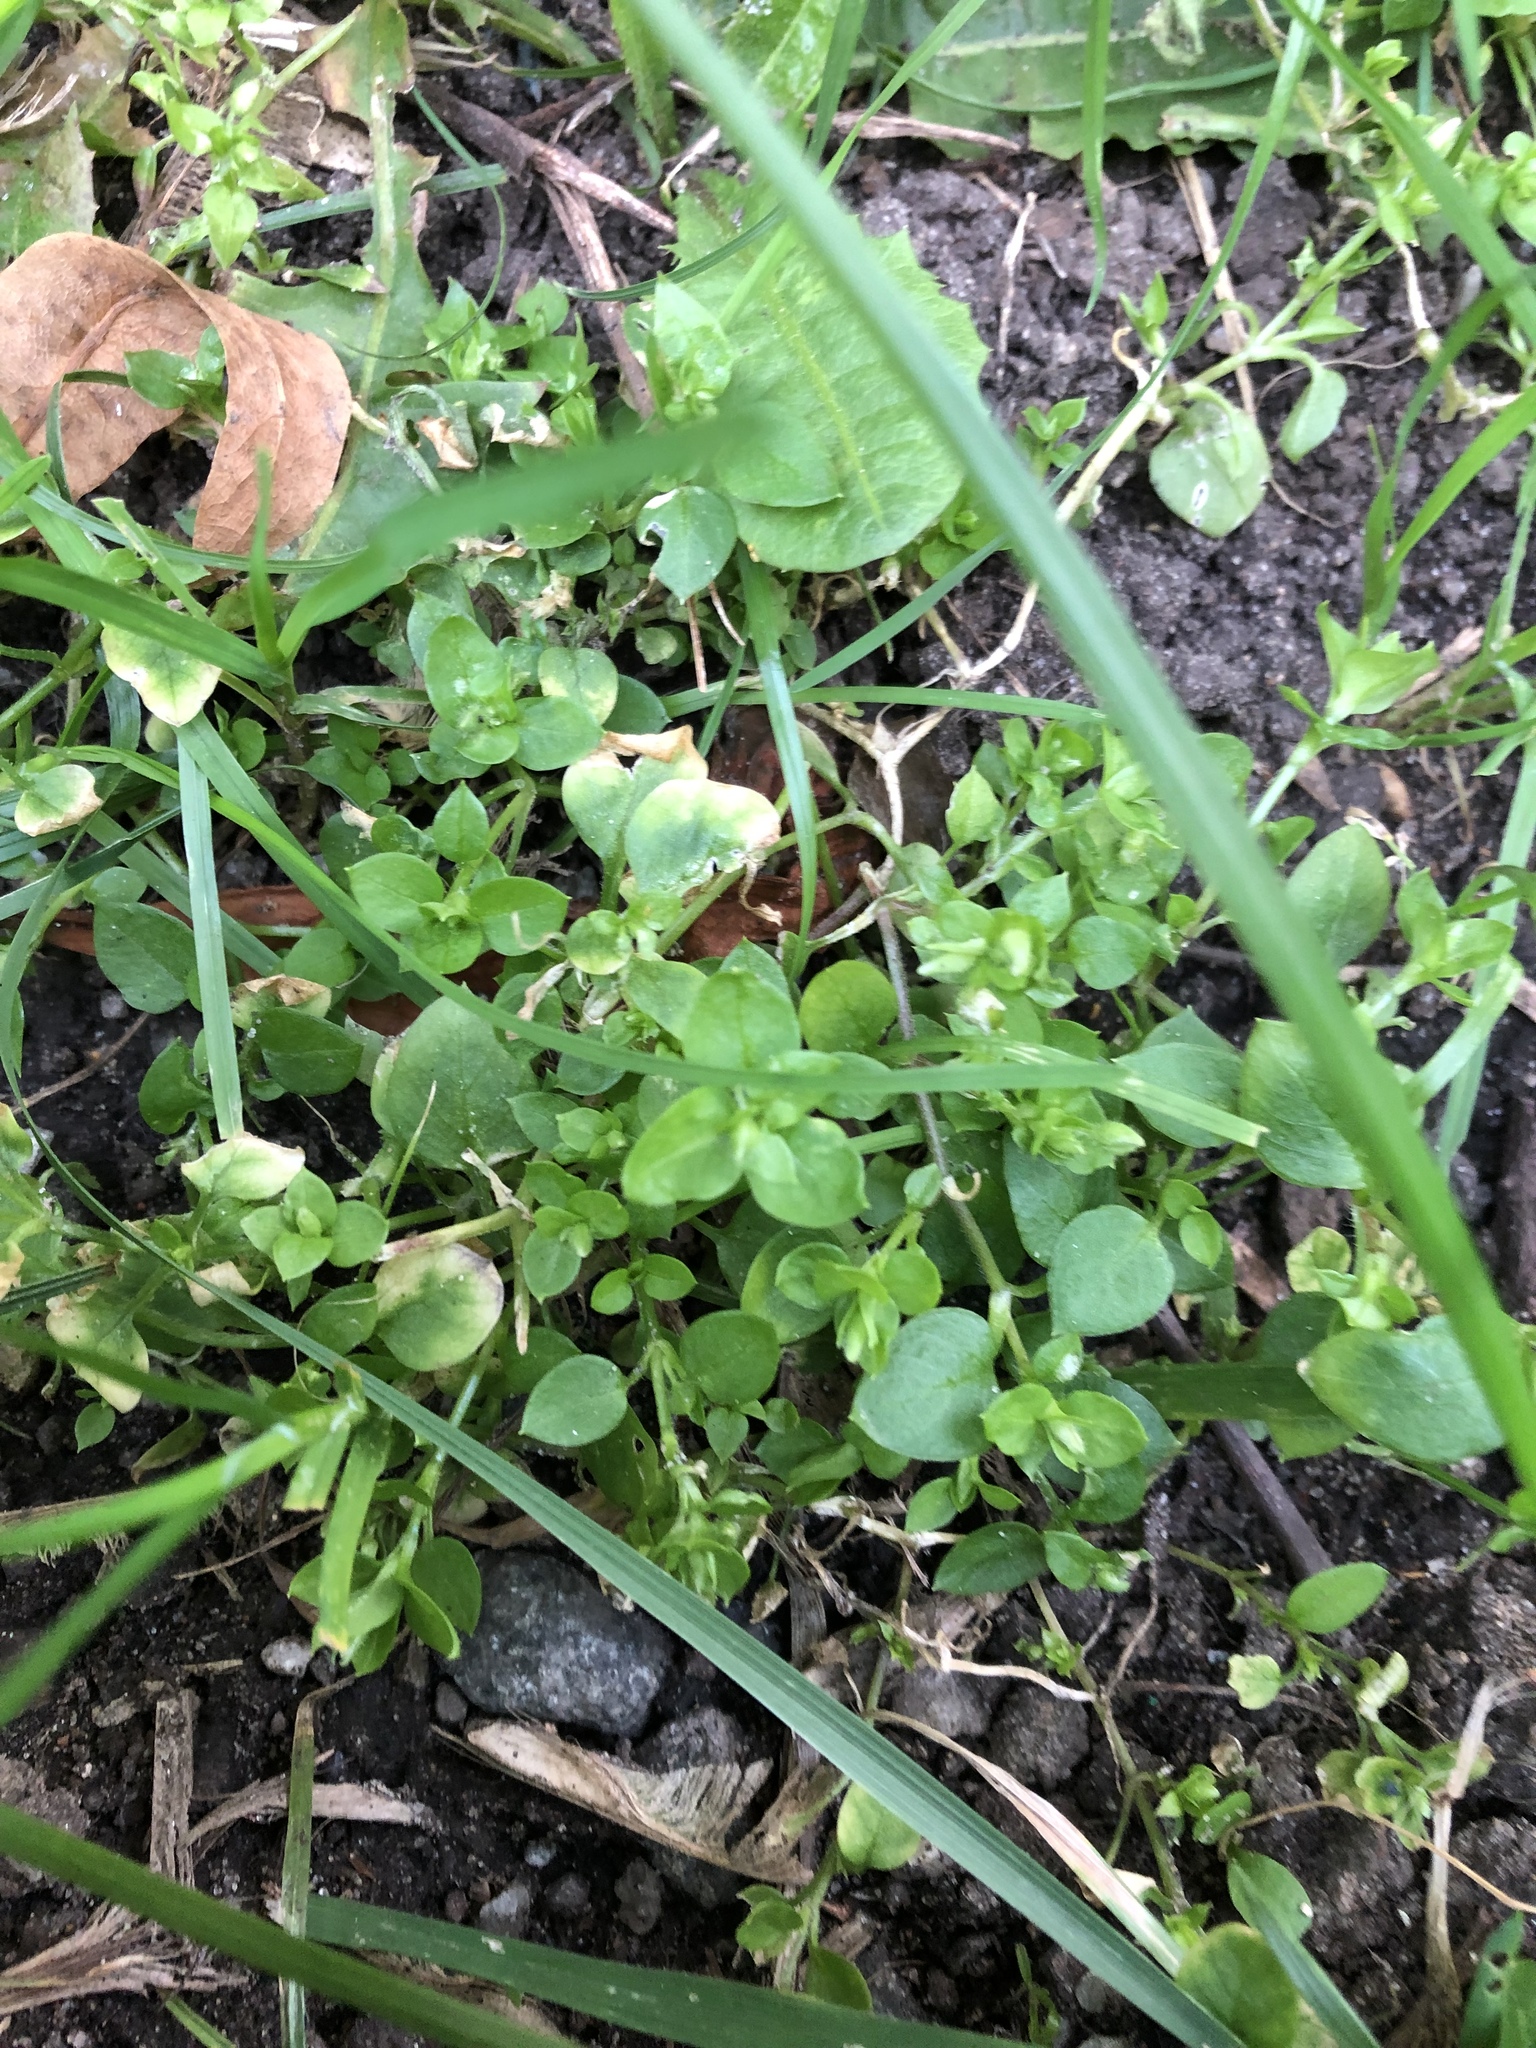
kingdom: Plantae
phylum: Tracheophyta
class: Magnoliopsida
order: Caryophyllales
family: Caryophyllaceae
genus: Stellaria
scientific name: Stellaria media
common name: Common chickweed
